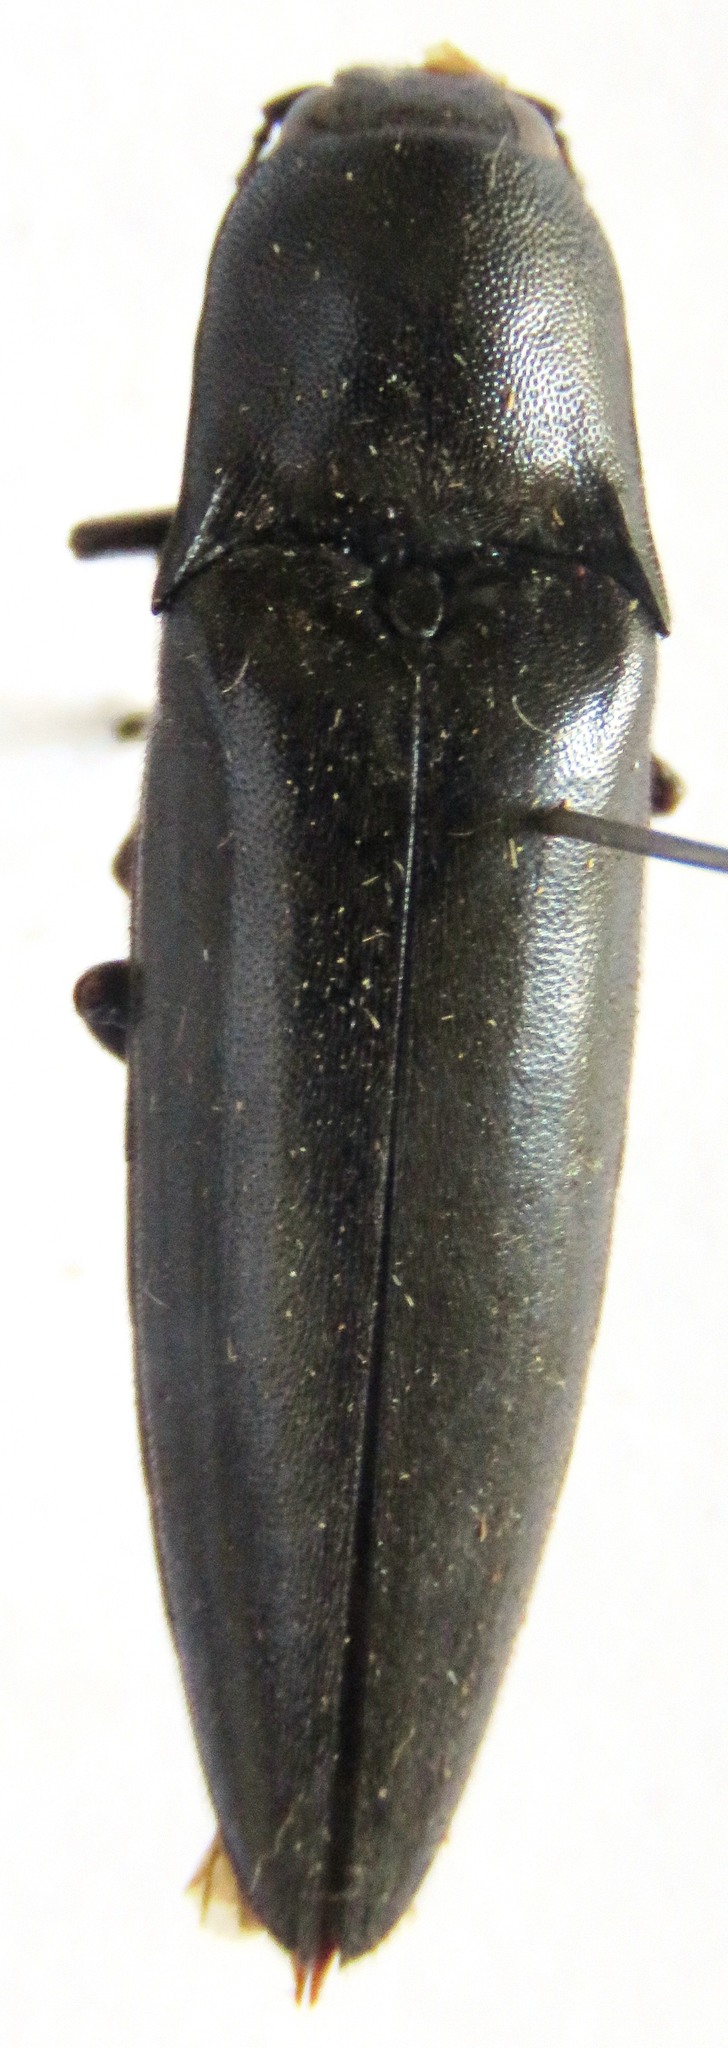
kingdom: Animalia
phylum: Arthropoda
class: Insecta
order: Coleoptera
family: Elateridae
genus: Orthostethus
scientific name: Orthostethus
